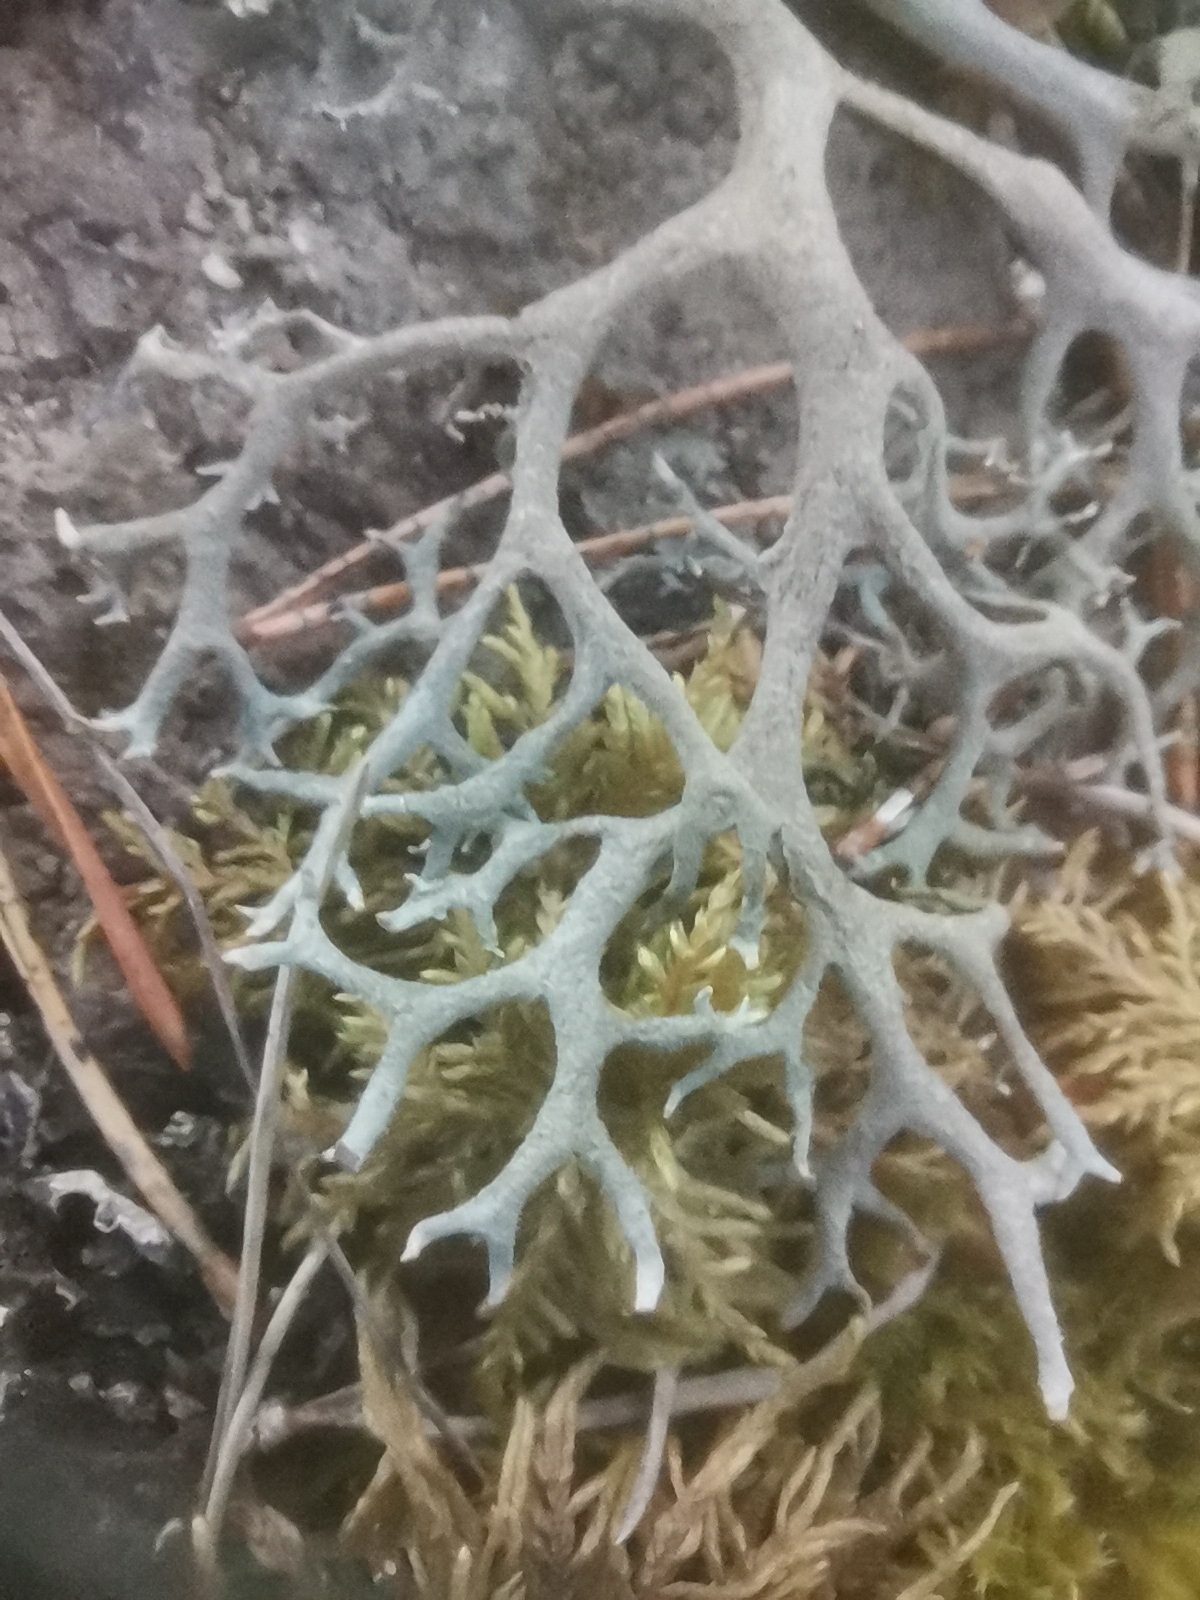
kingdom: Fungi
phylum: Ascomycota
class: Lecanoromycetes
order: Lecanorales
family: Parmeliaceae
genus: Pseudevernia
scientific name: Pseudevernia furfuracea
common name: Tree moss
